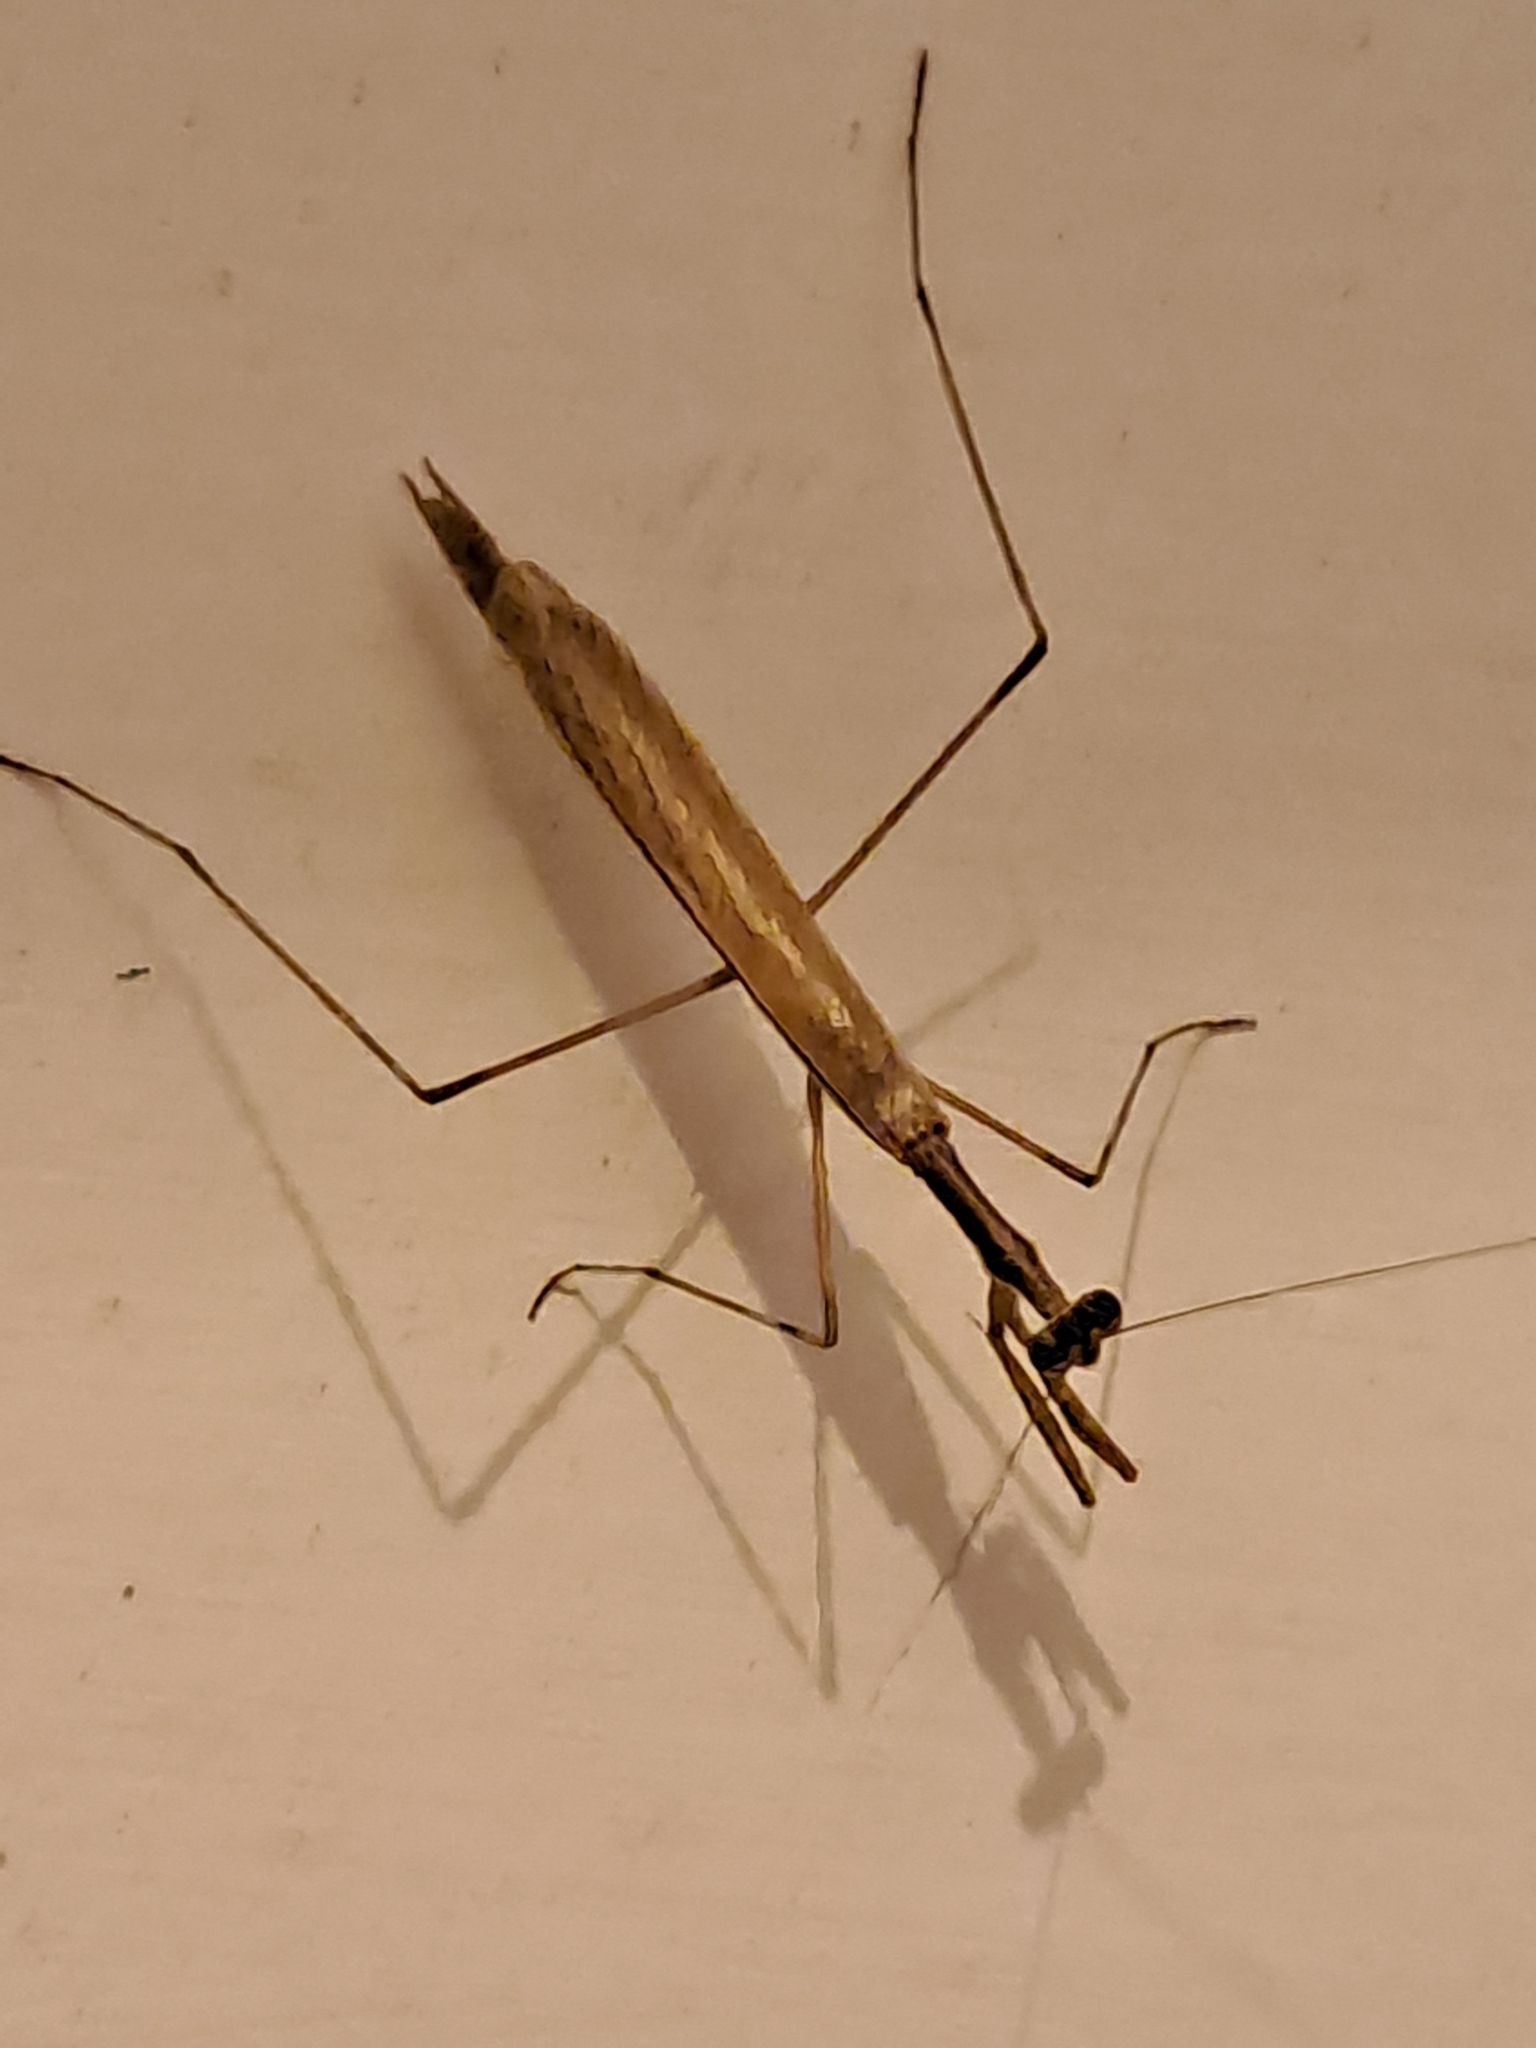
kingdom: Animalia
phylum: Arthropoda
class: Insecta
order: Mantodea
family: Thespidae
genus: Musonia
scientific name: Musonia
